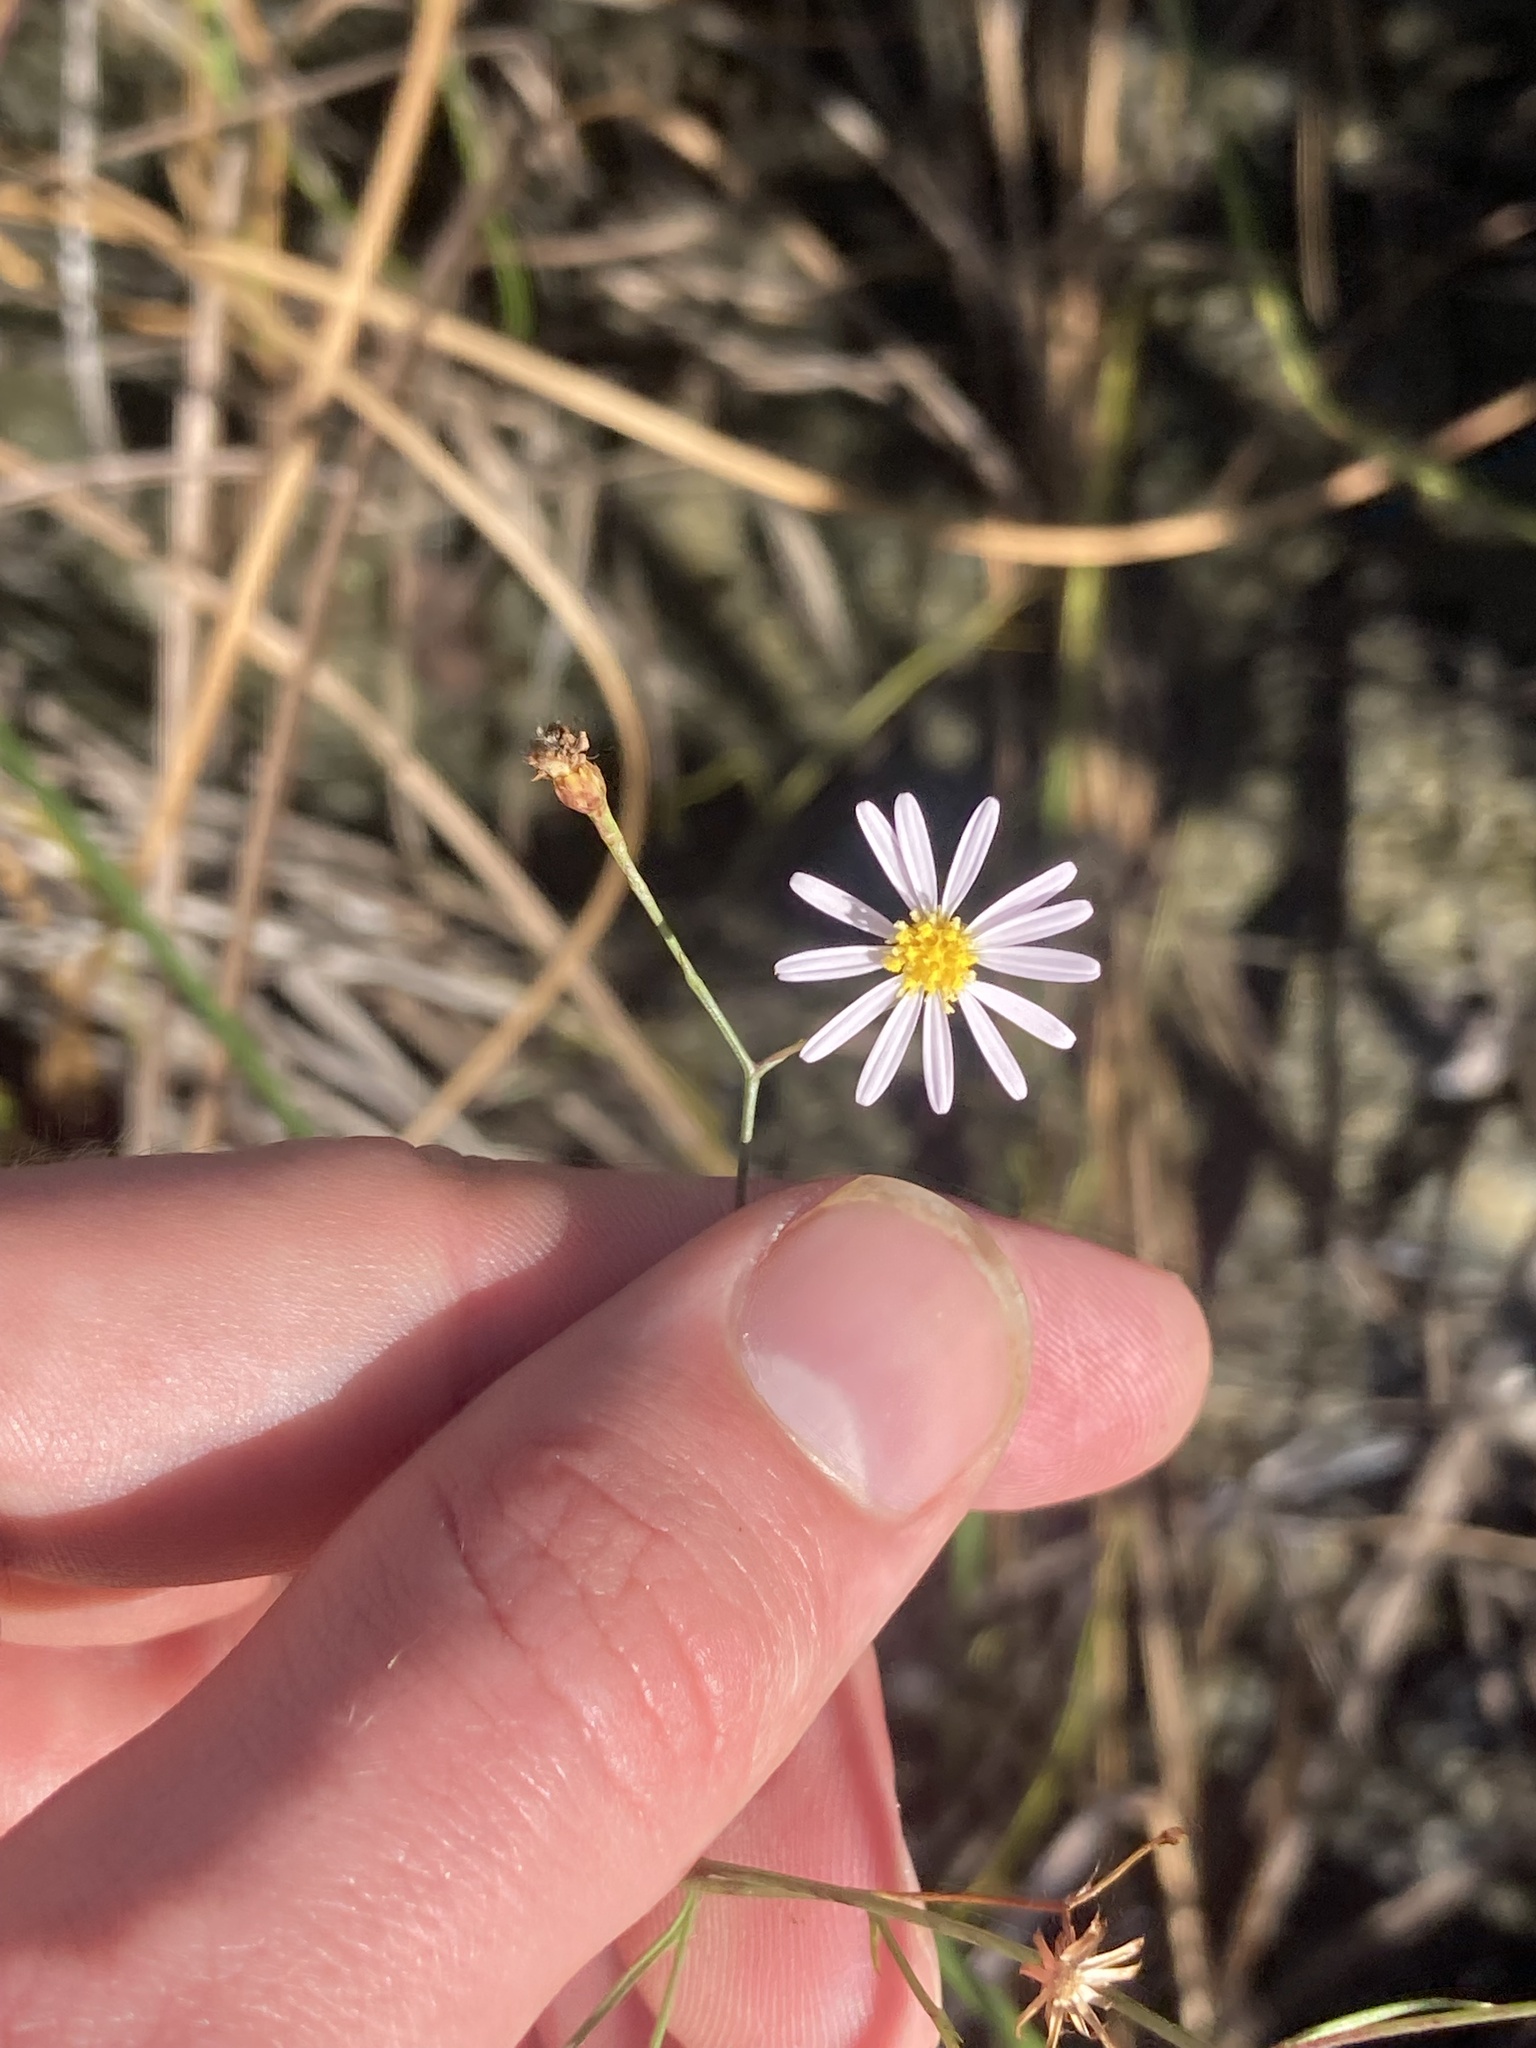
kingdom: Plantae
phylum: Tracheophyta
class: Magnoliopsida
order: Asterales
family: Asteraceae
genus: Symphyotrichum
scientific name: Symphyotrichum tenuifolium
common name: Perennial salt-marsh aster
